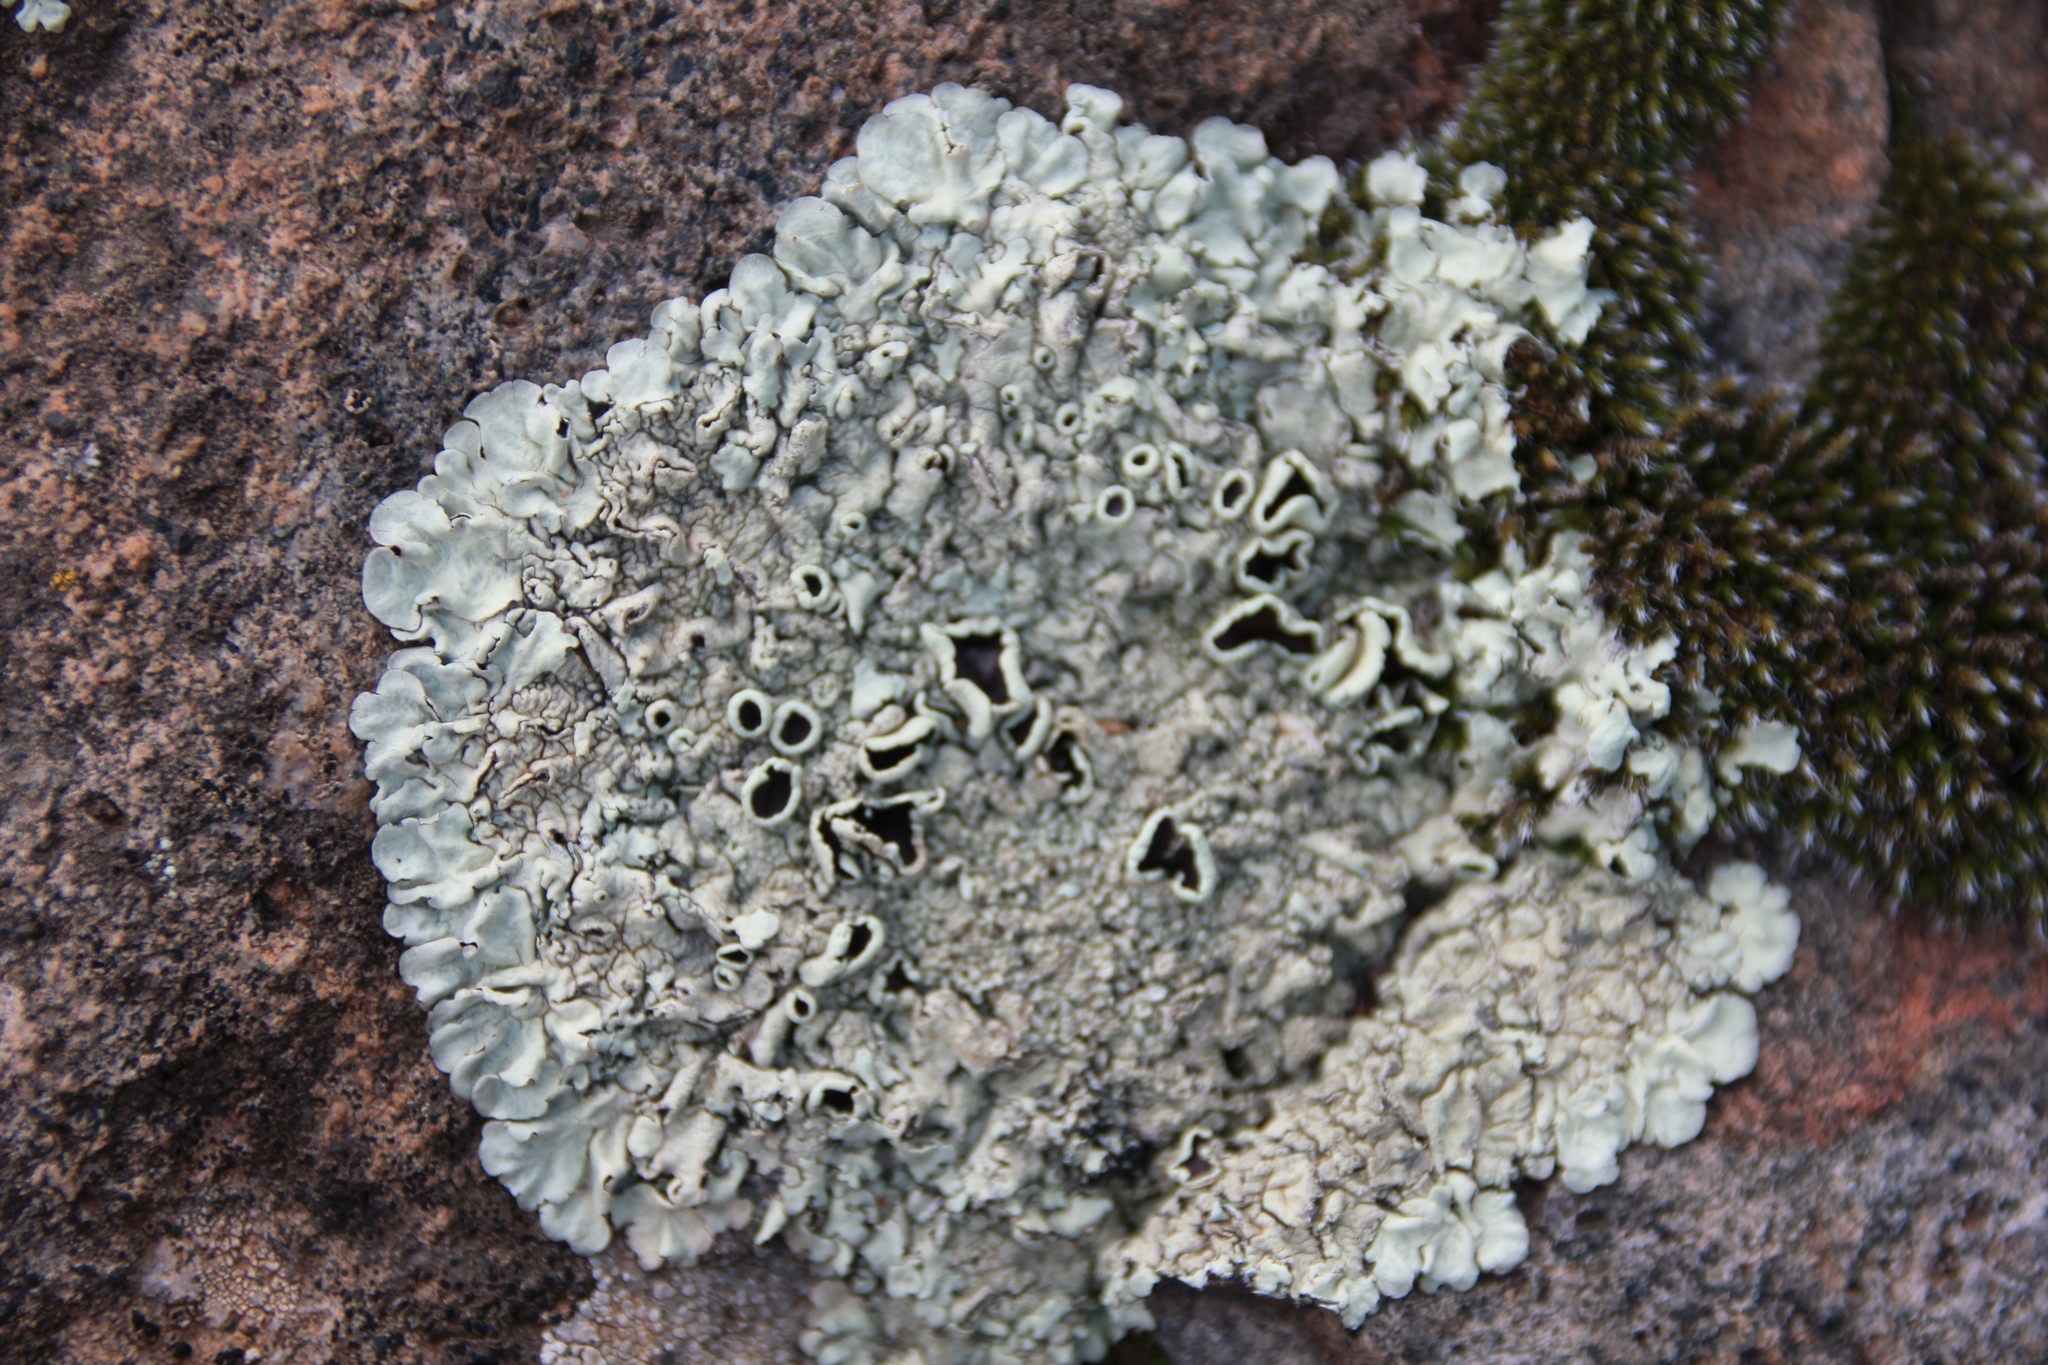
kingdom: Fungi
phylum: Ascomycota
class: Lecanoromycetes
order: Lecanorales
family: Parmeliaceae
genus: Xanthoparmelia
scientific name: Xanthoparmelia cumberlandia
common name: Cumberland rock shield
